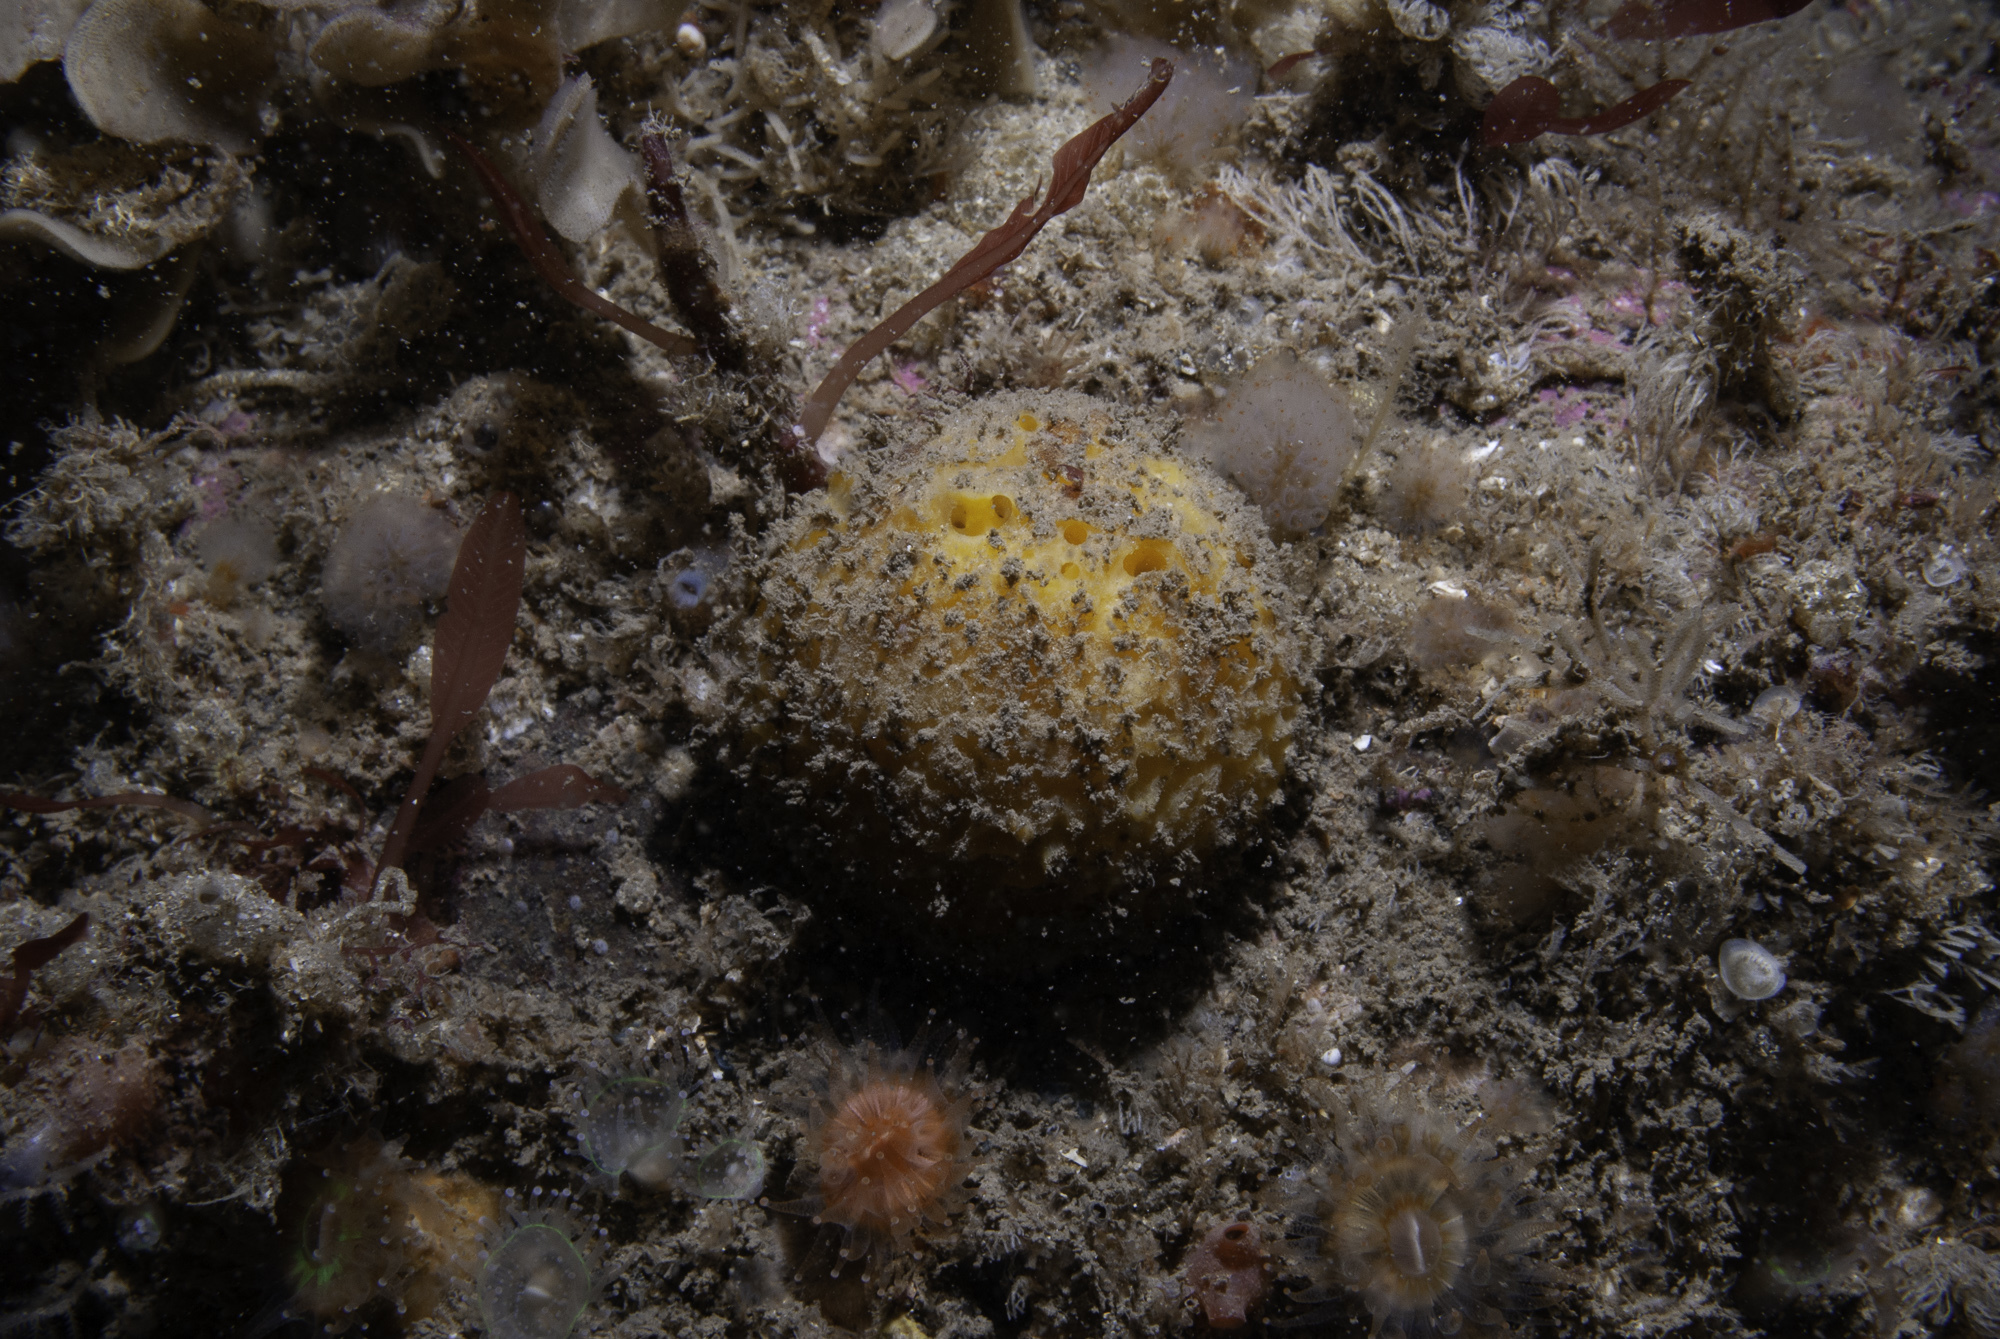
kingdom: Animalia
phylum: Porifera
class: Demospongiae
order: Tethyida
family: Tethyidae
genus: Tethya
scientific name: Tethya citrina
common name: Sea lemon
